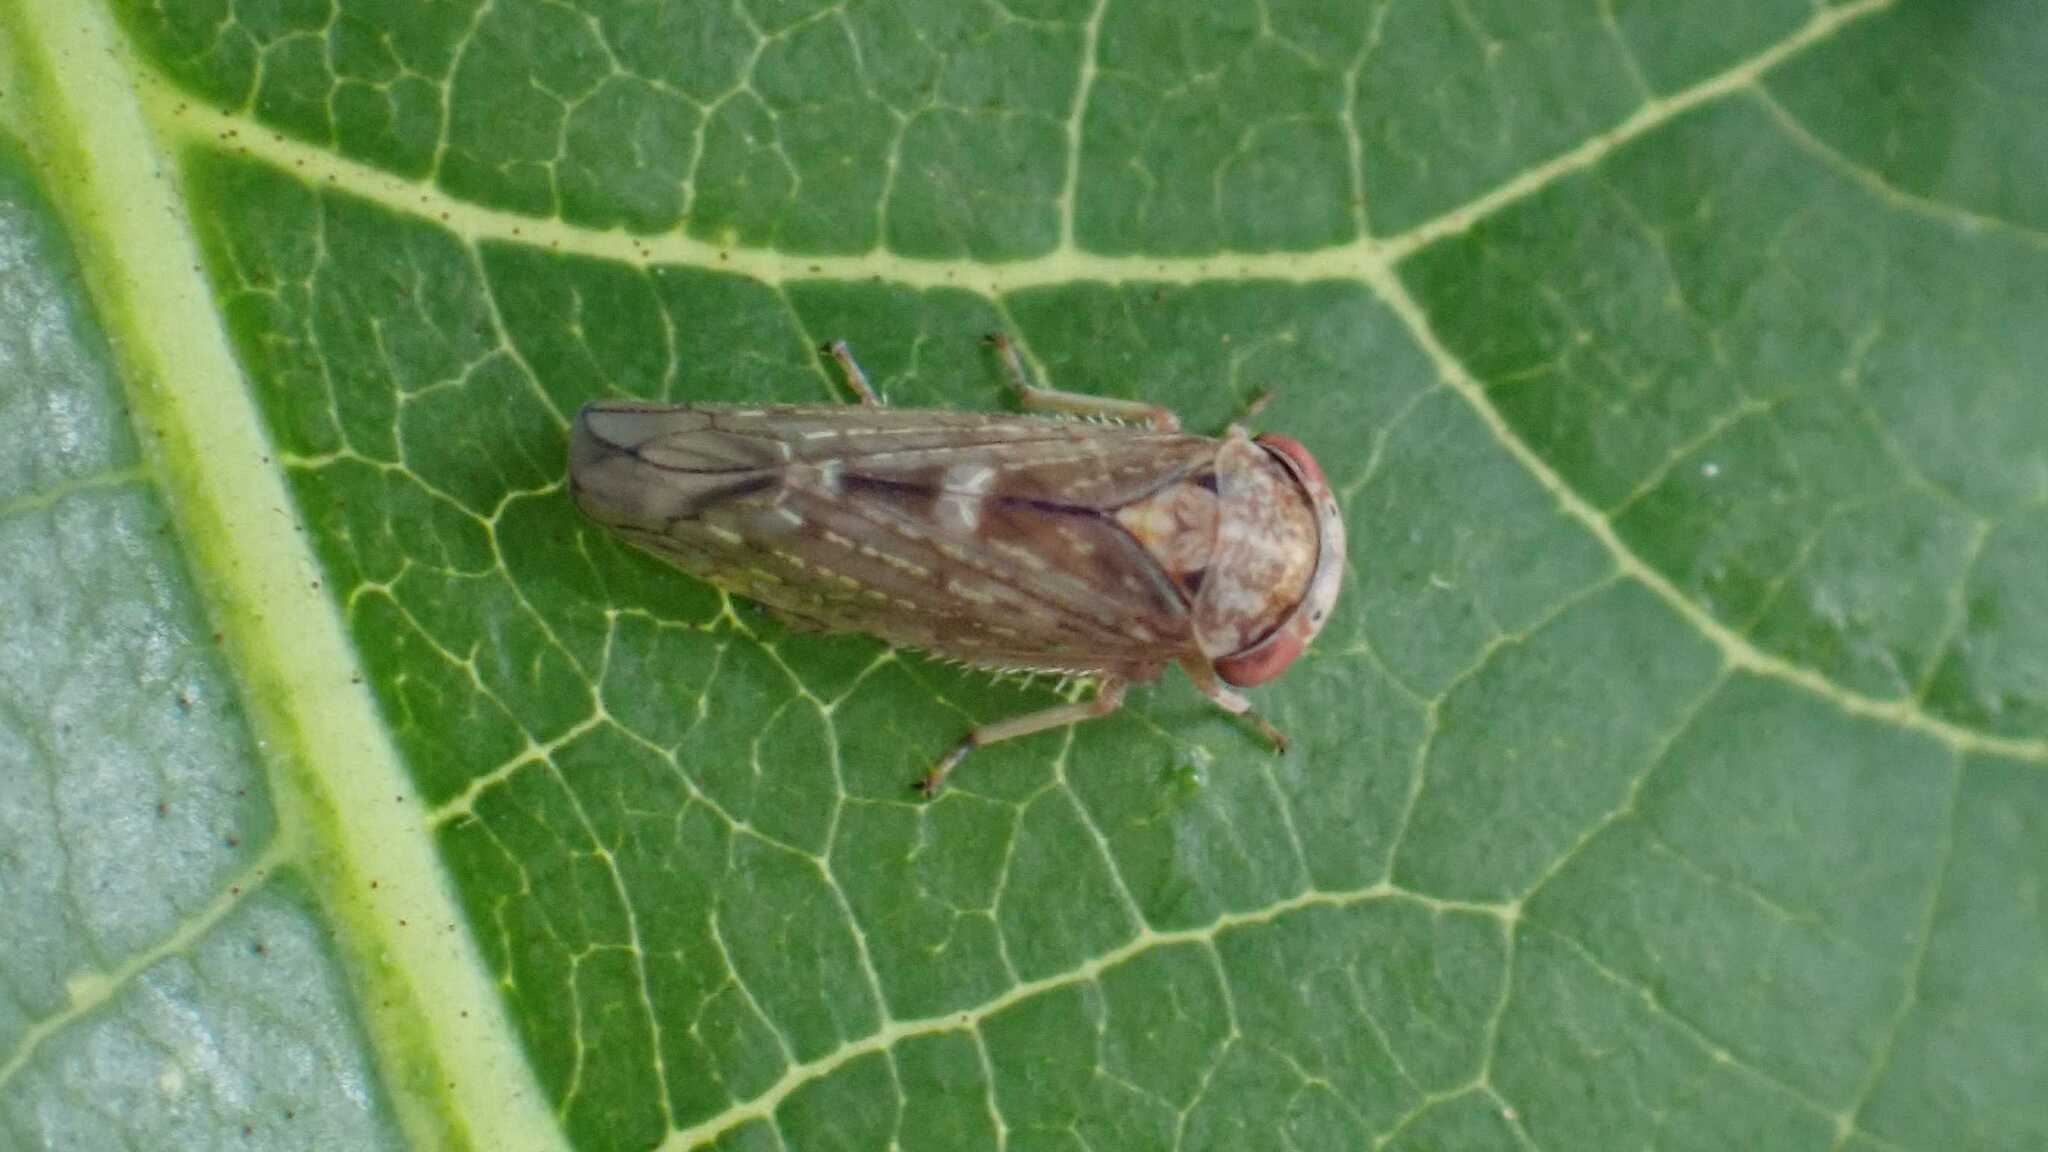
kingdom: Animalia
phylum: Arthropoda
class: Insecta
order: Hemiptera
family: Cicadellidae
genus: Acericerus
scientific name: Acericerus vittifrons
